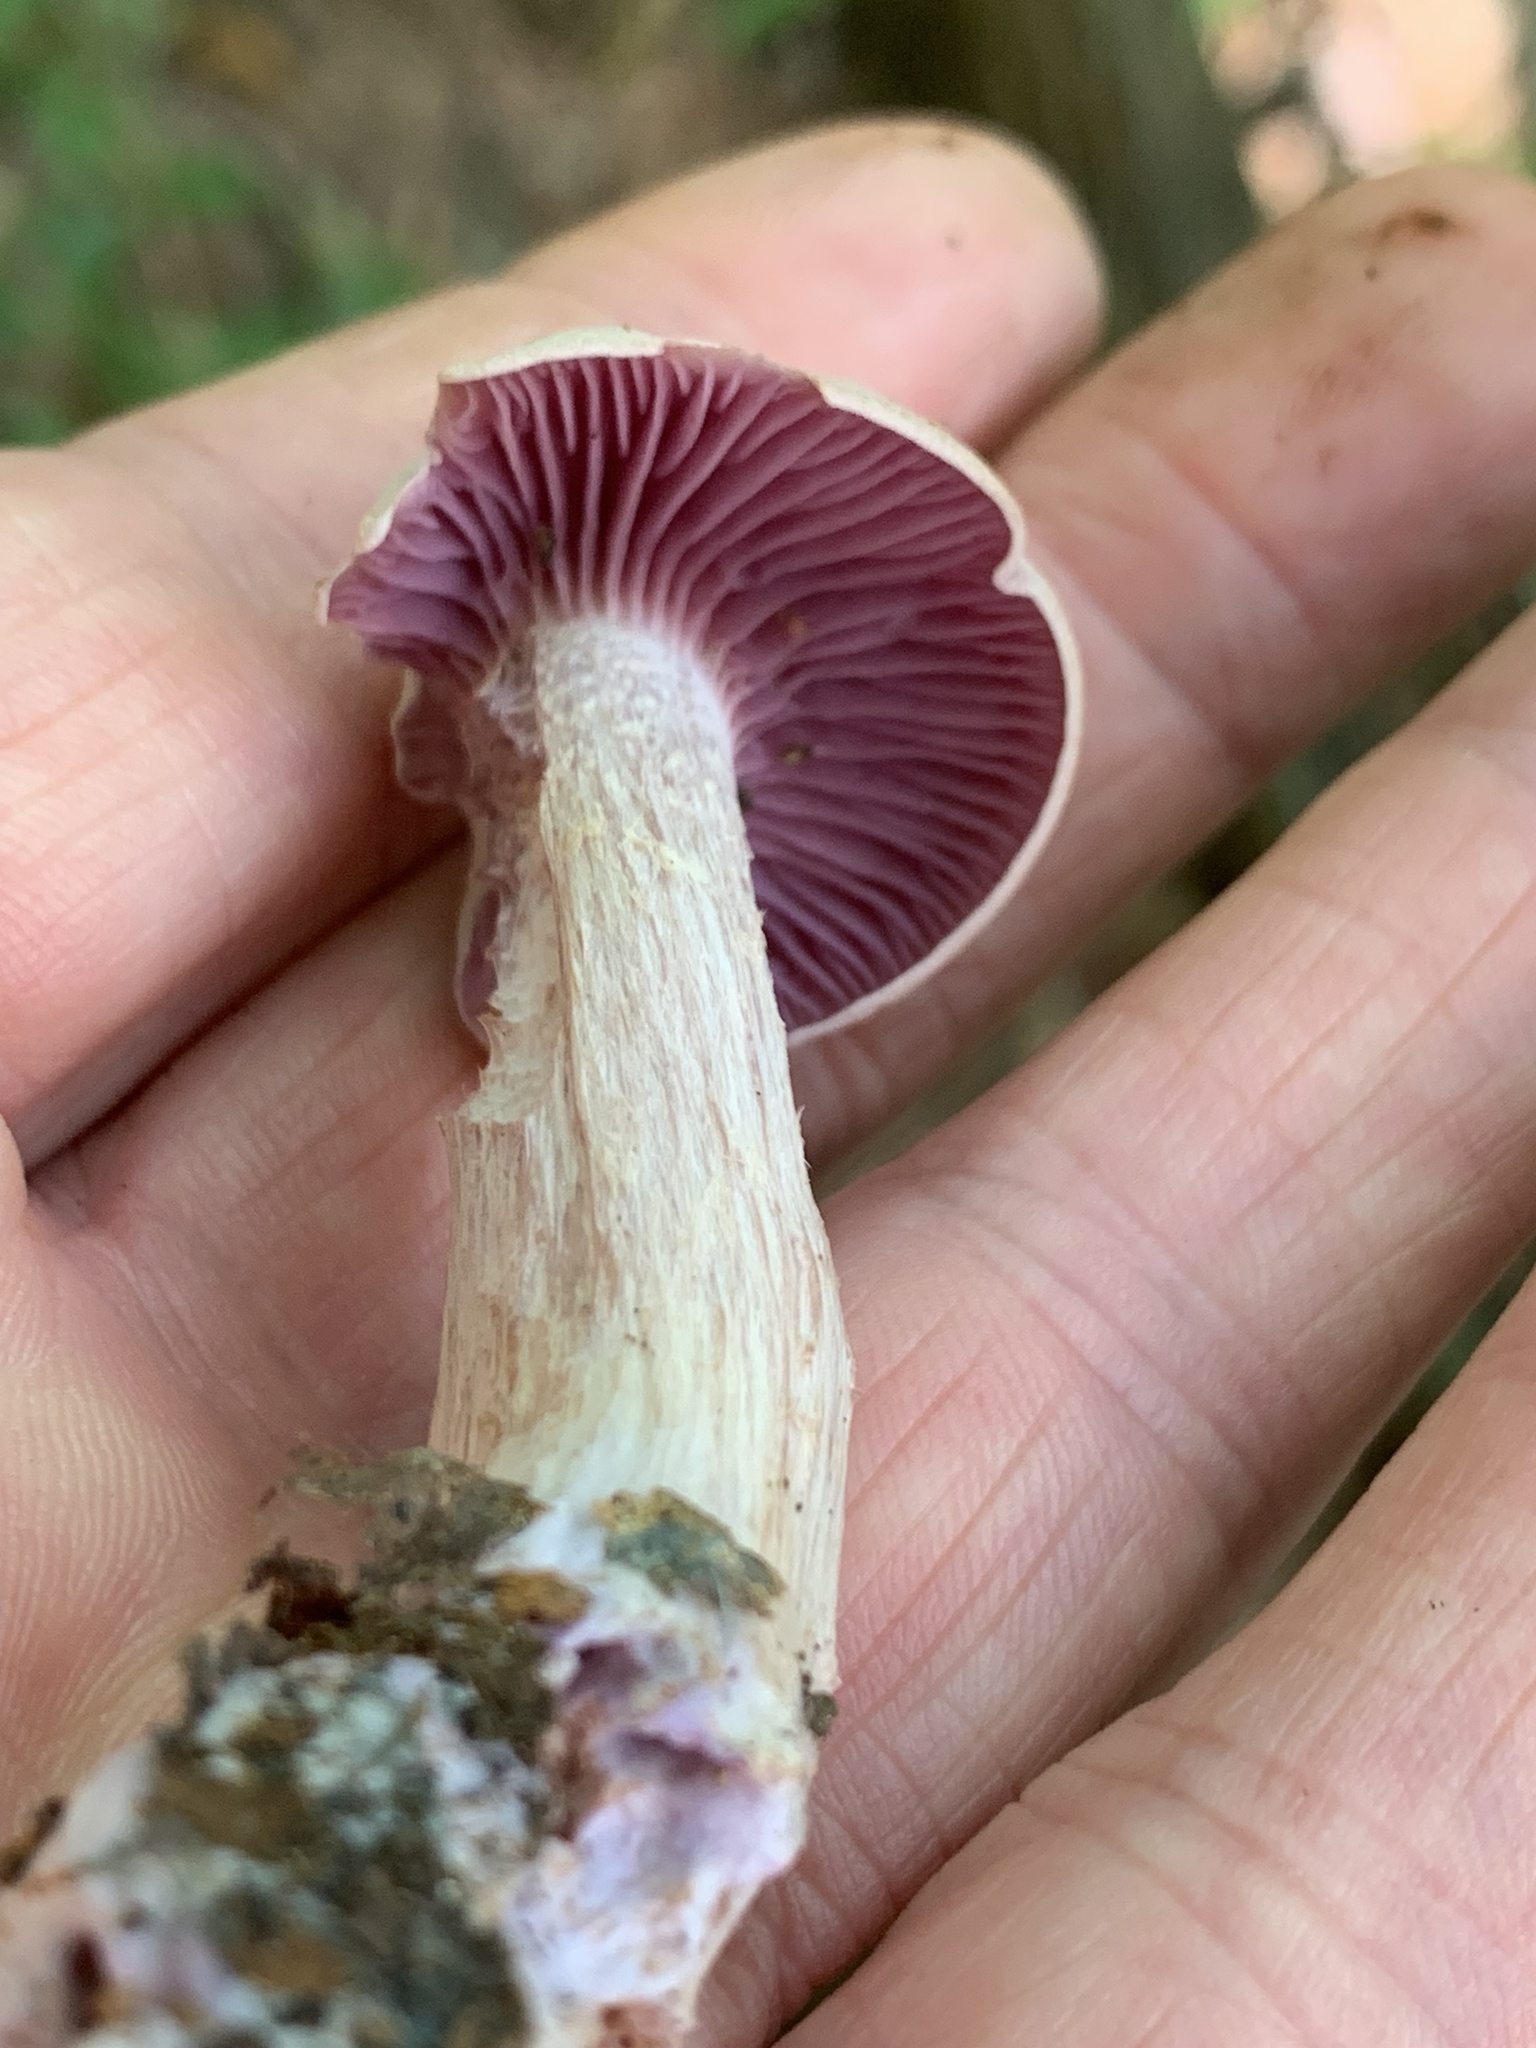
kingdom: Fungi
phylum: Basidiomycota
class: Agaricomycetes
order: Agaricales
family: Hydnangiaceae
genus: Laccaria
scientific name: Laccaria ochropurpurea
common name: Purple laccaria
